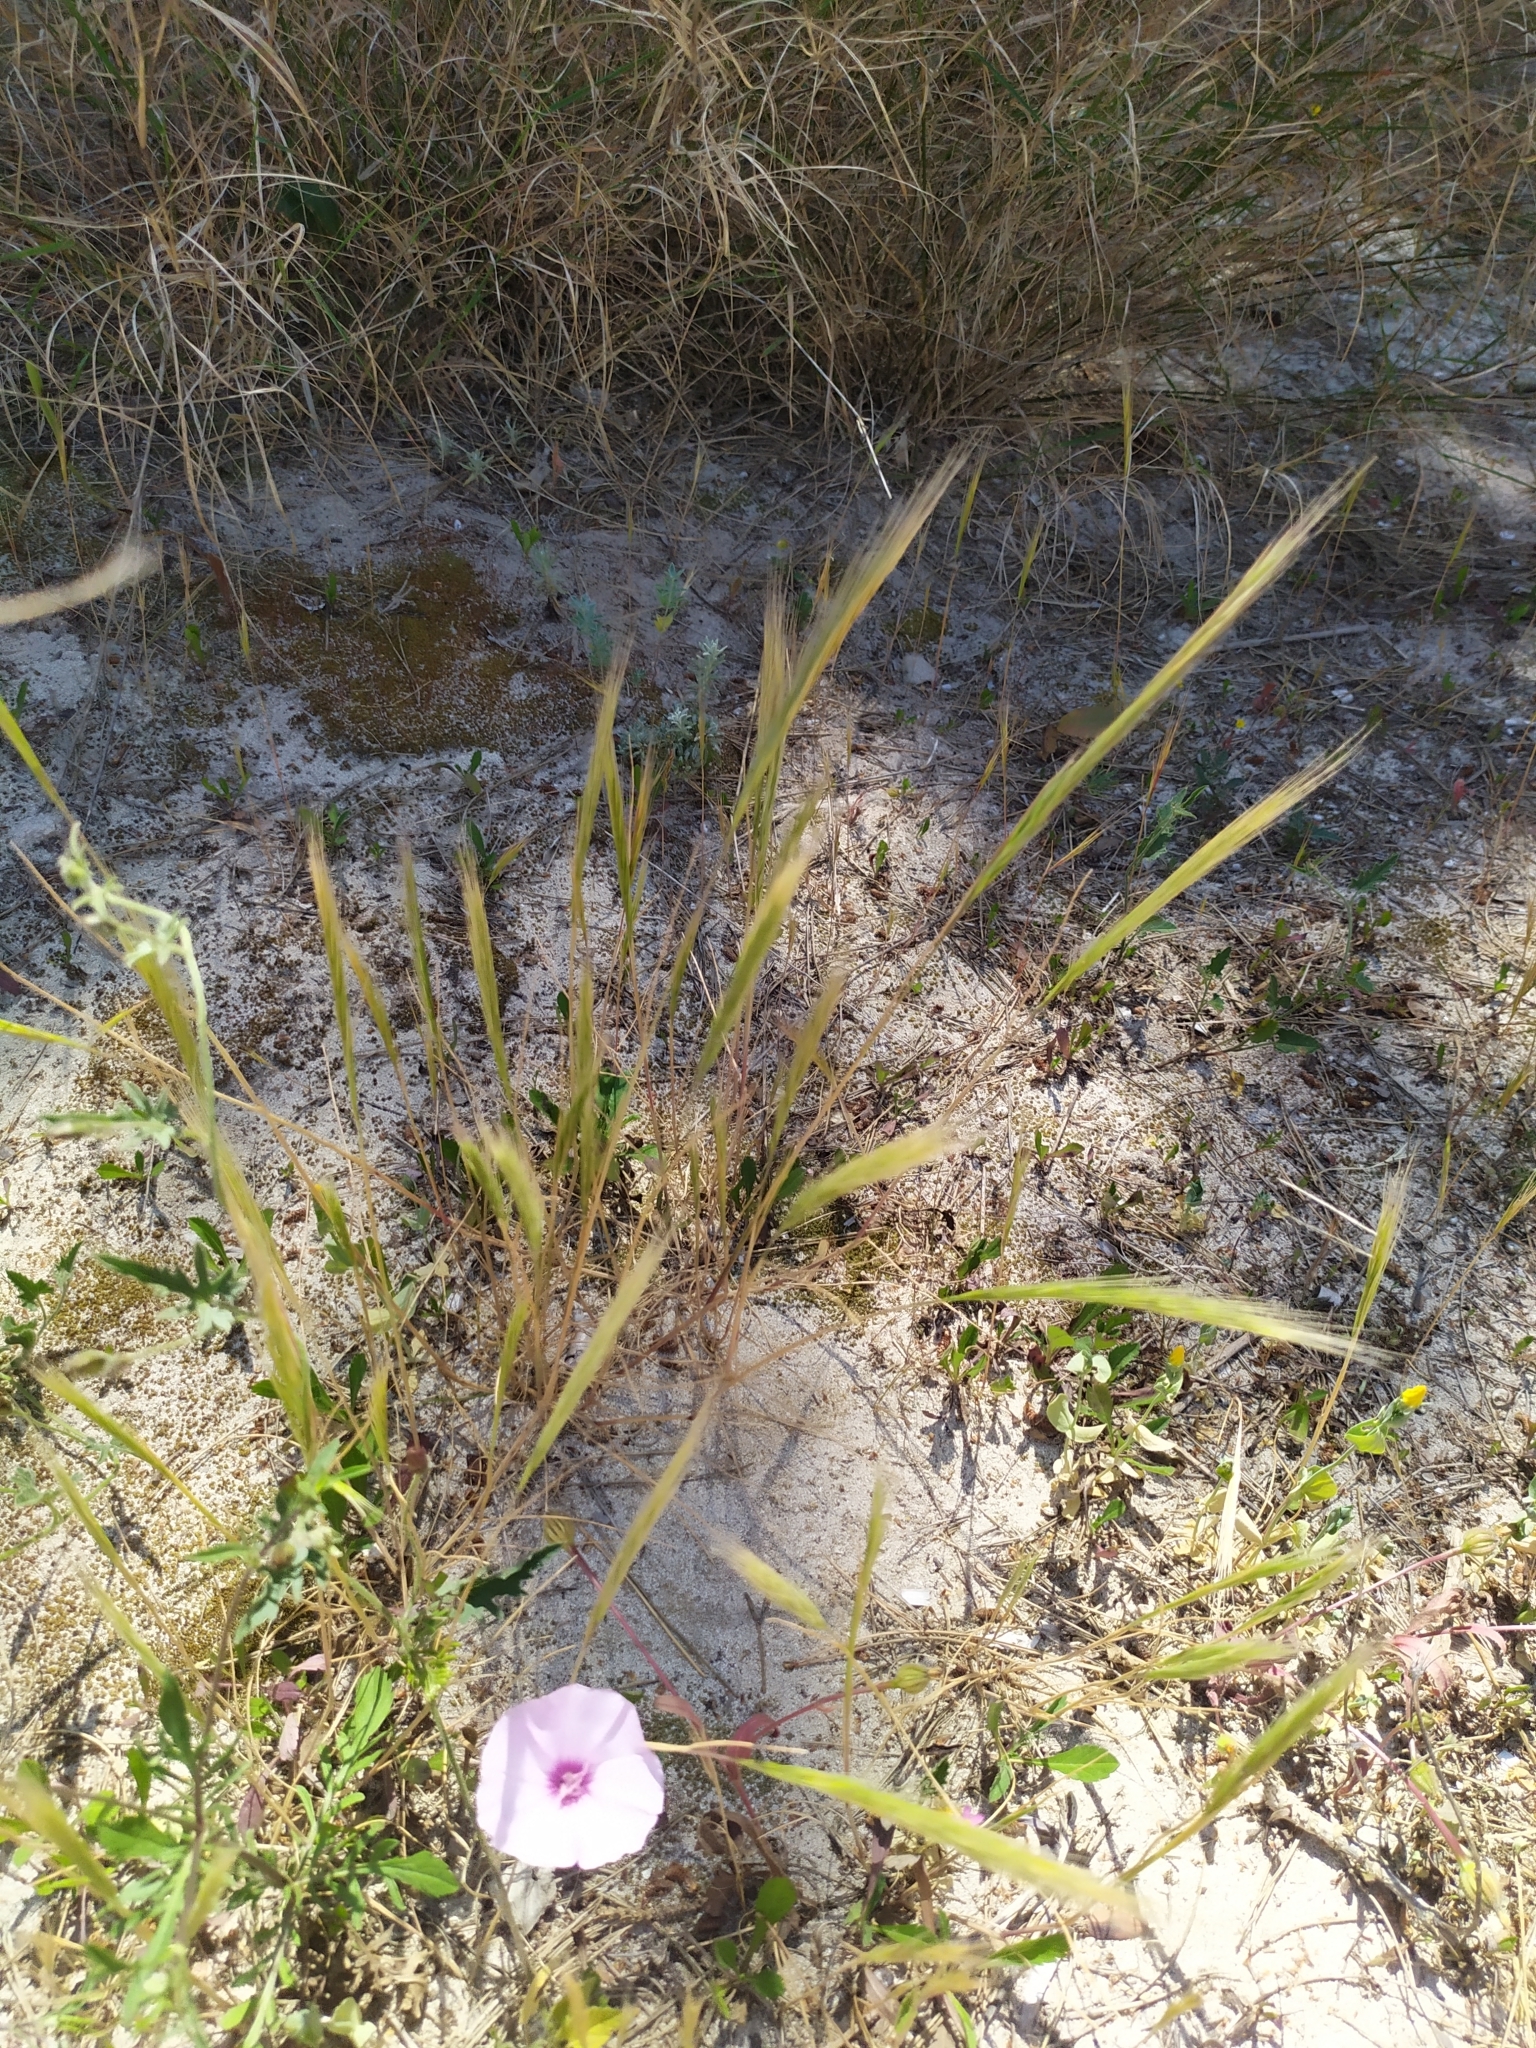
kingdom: Plantae
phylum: Tracheophyta
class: Liliopsida
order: Poales
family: Poaceae
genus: Stipellula
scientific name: Stipellula capensis
